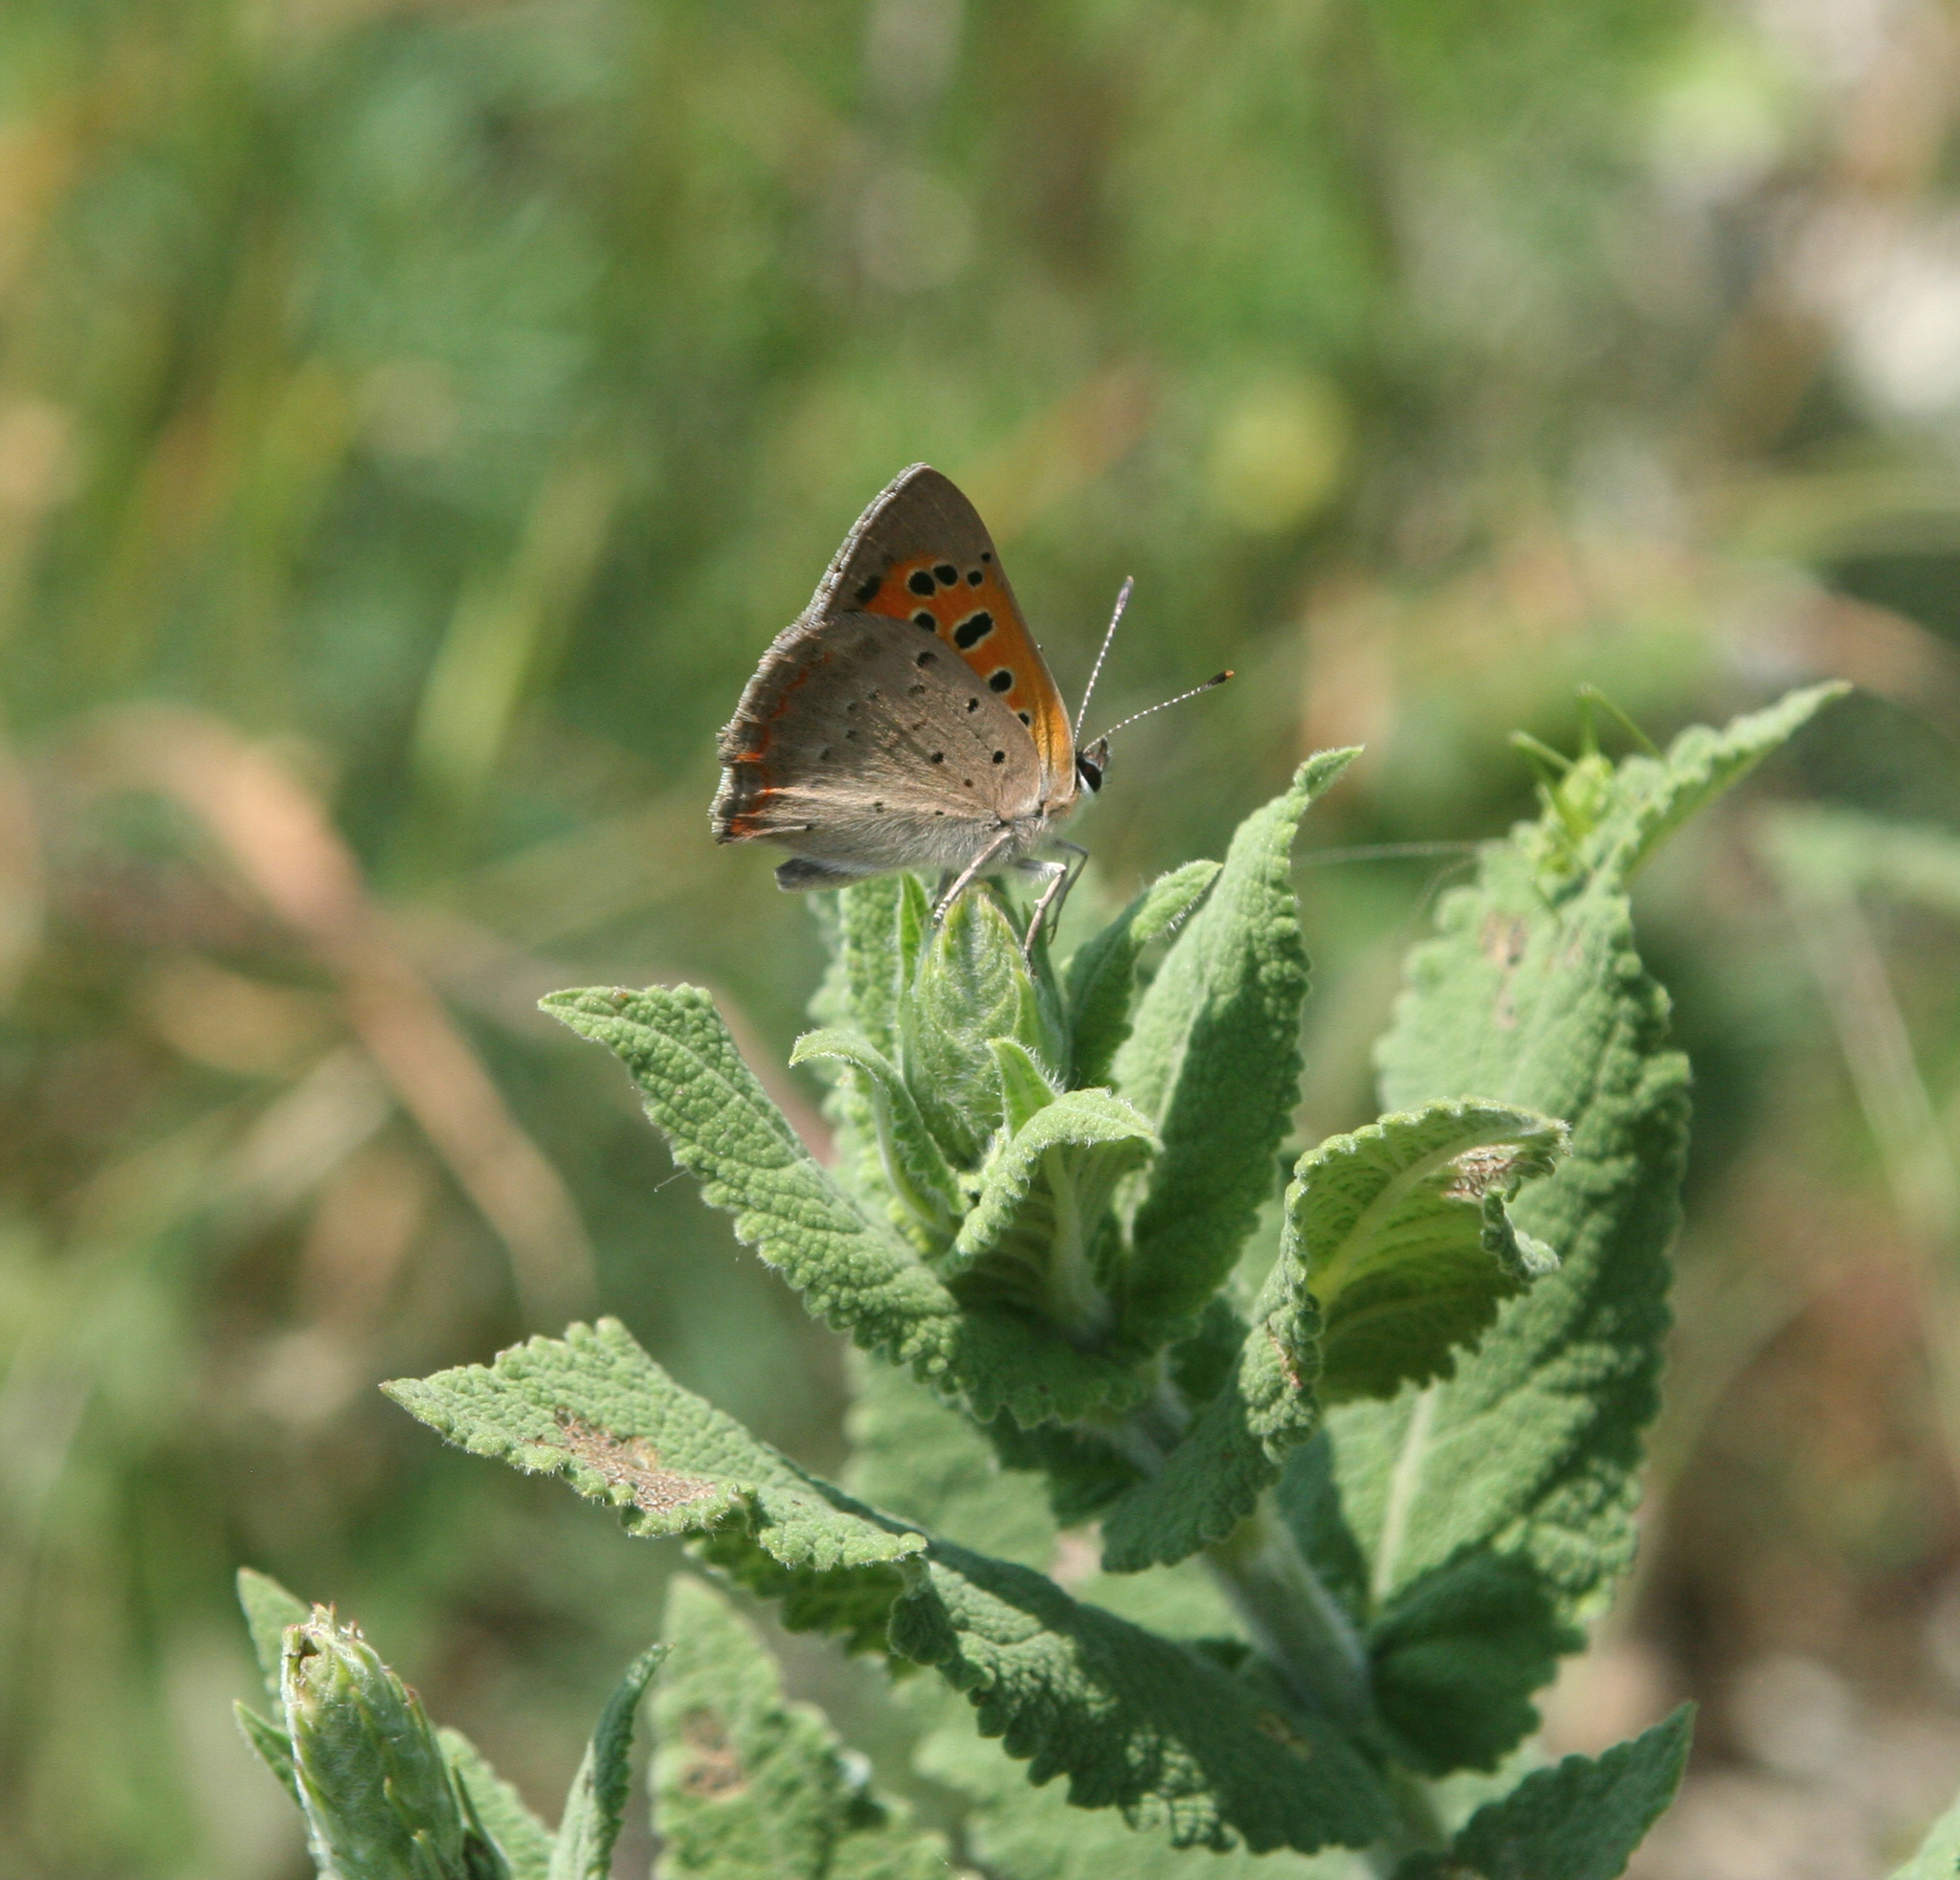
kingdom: Animalia
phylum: Arthropoda
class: Insecta
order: Lepidoptera
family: Lycaenidae
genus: Lycaena
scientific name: Lycaena phlaeas
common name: Small copper
